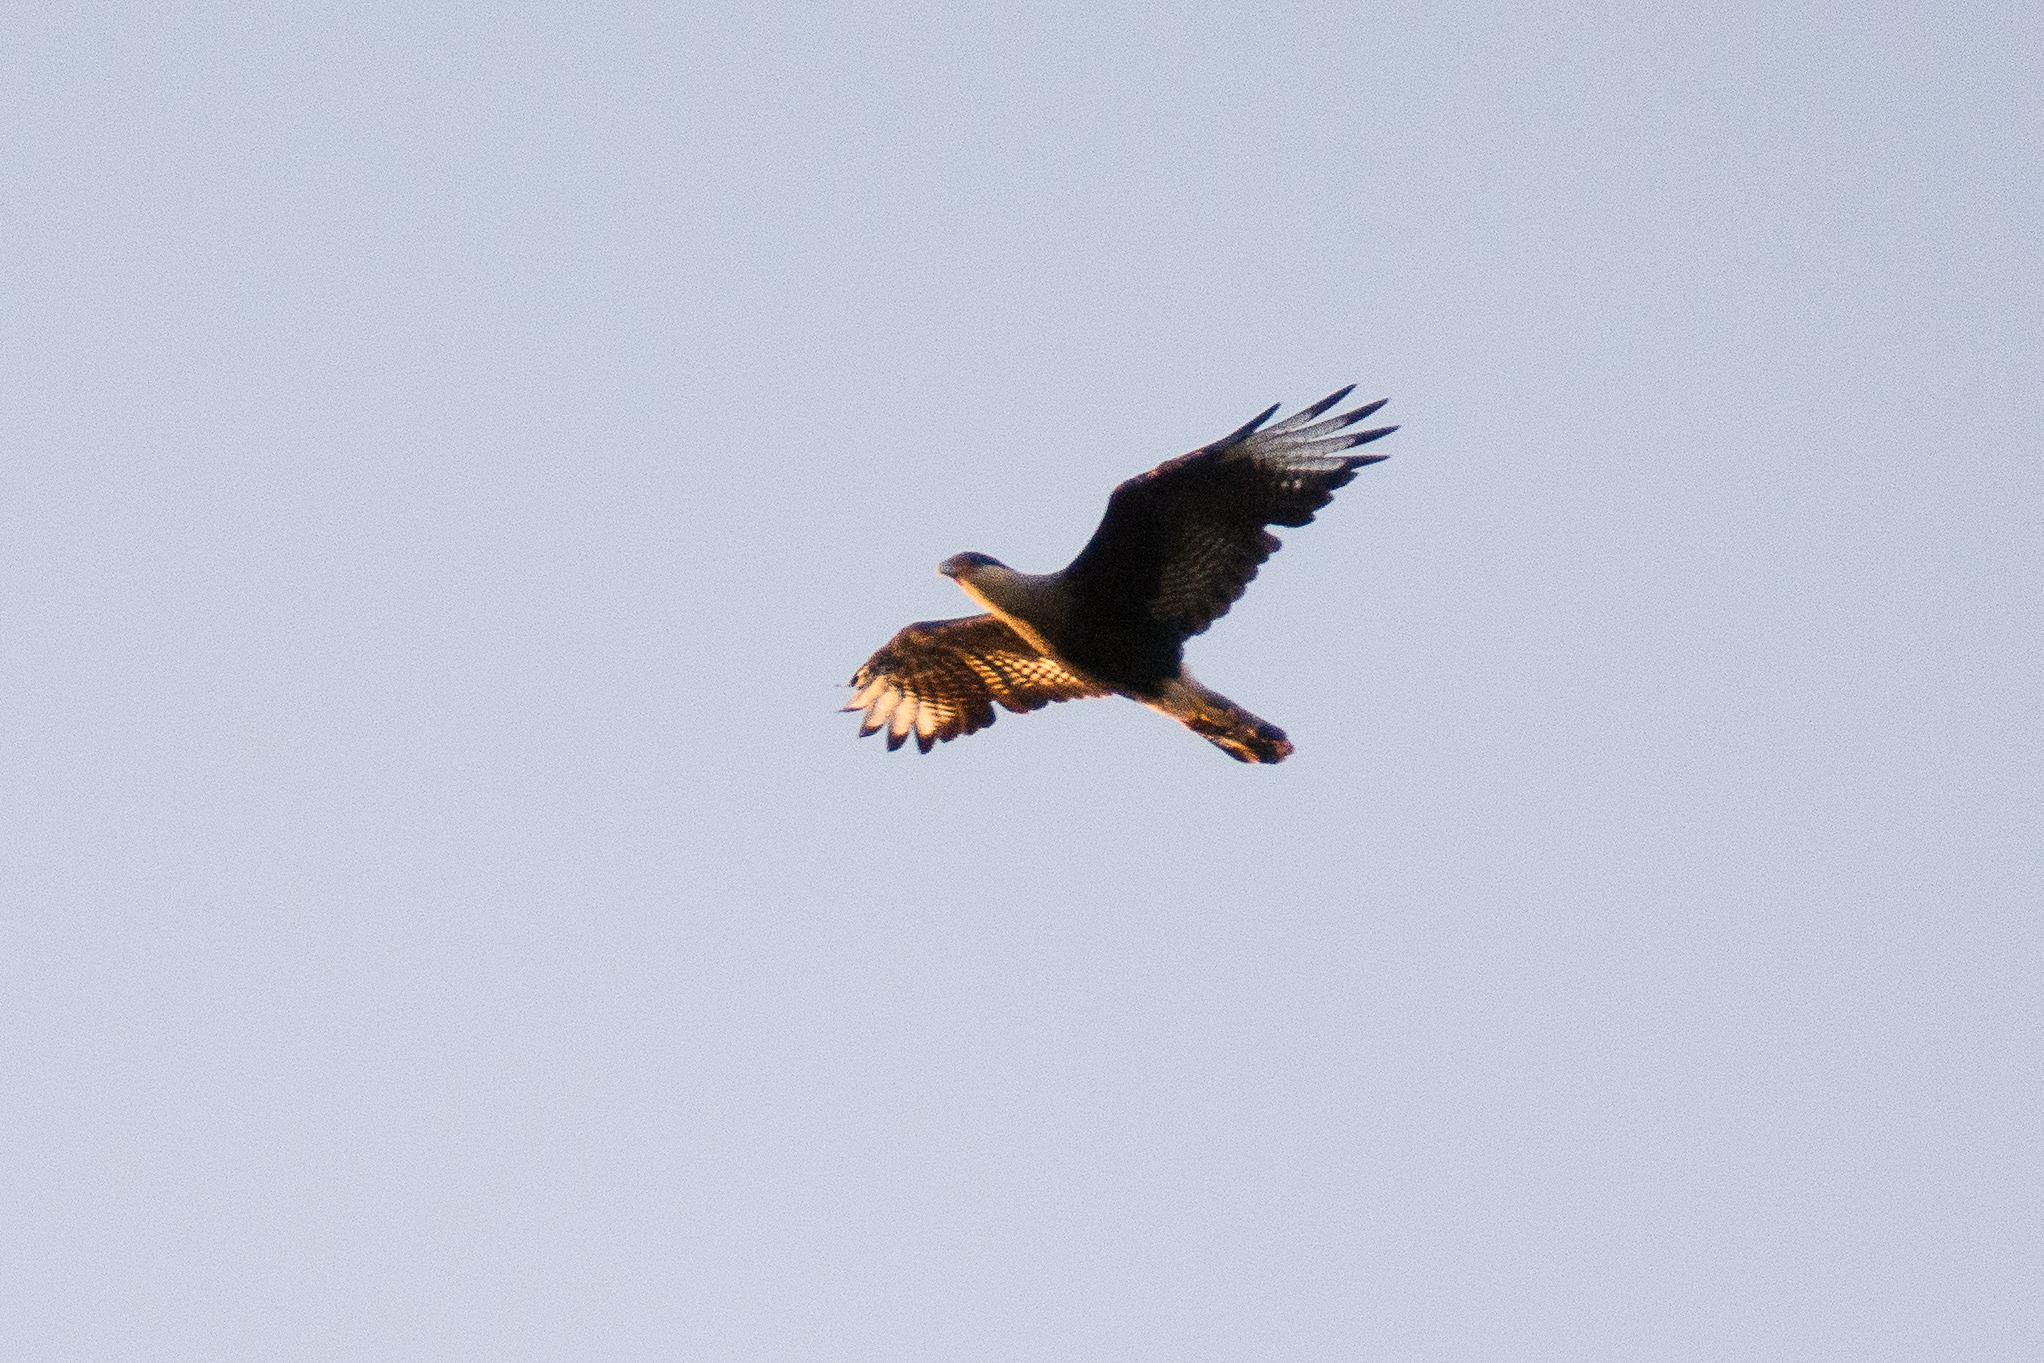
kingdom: Animalia
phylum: Chordata
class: Aves
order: Falconiformes
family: Falconidae
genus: Caracara
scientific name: Caracara plancus
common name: Southern caracara
